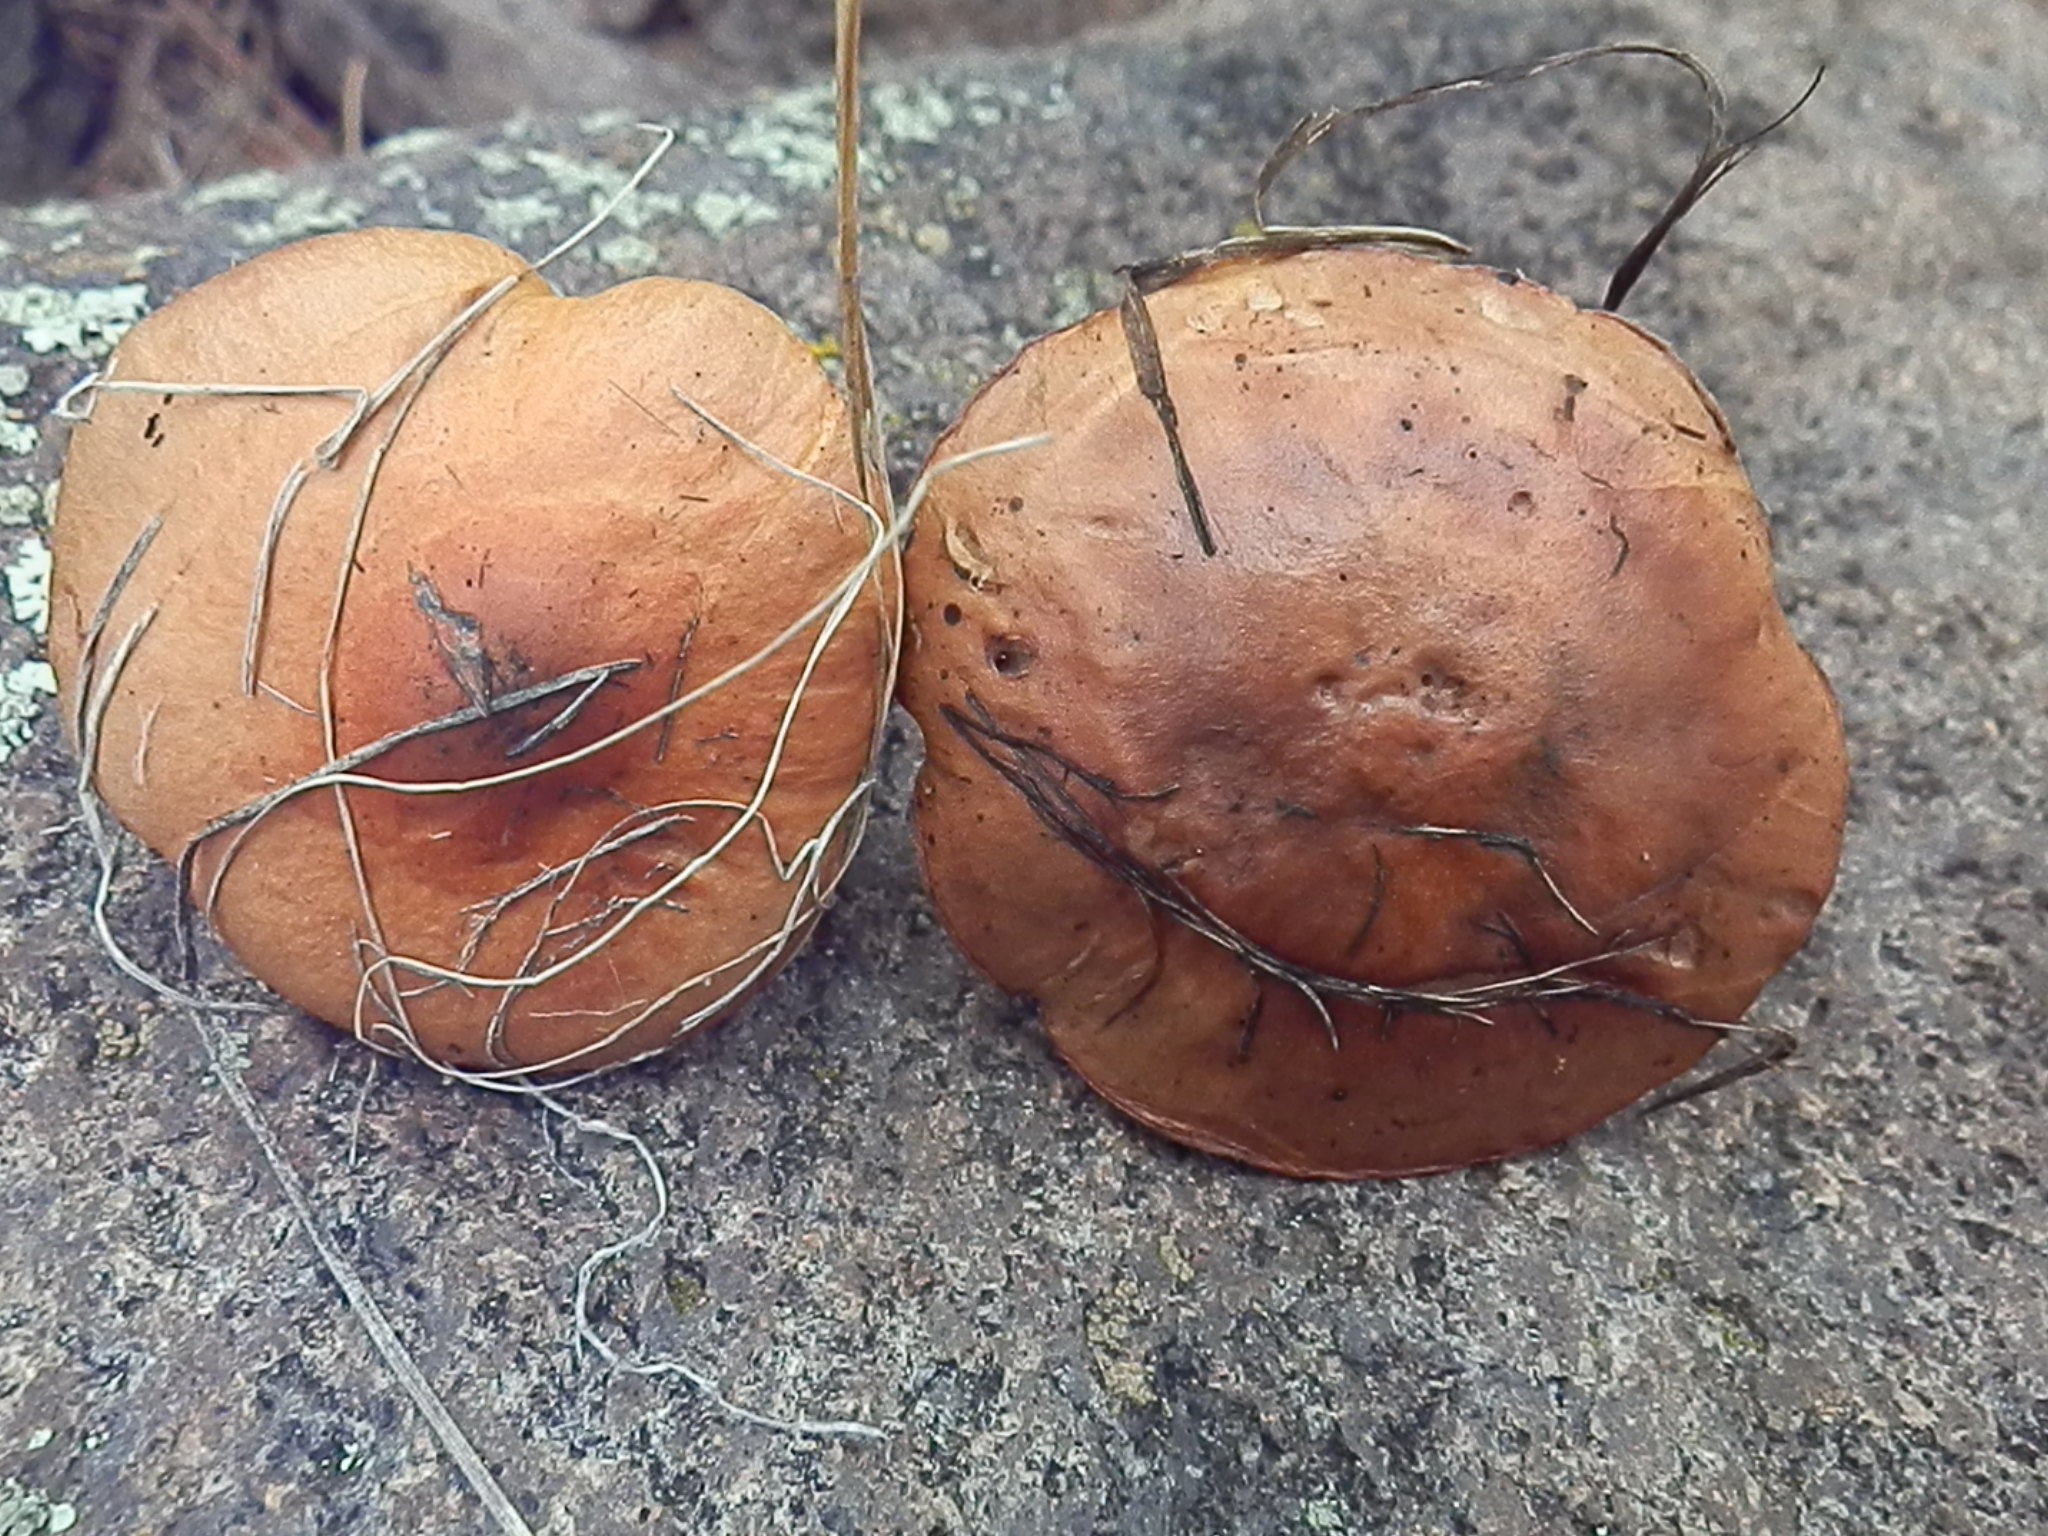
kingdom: Fungi
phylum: Basidiomycota
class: Agaricomycetes
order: Boletales
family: Gomphidiaceae
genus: Chroogomphus
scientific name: Chroogomphus vinicolor
